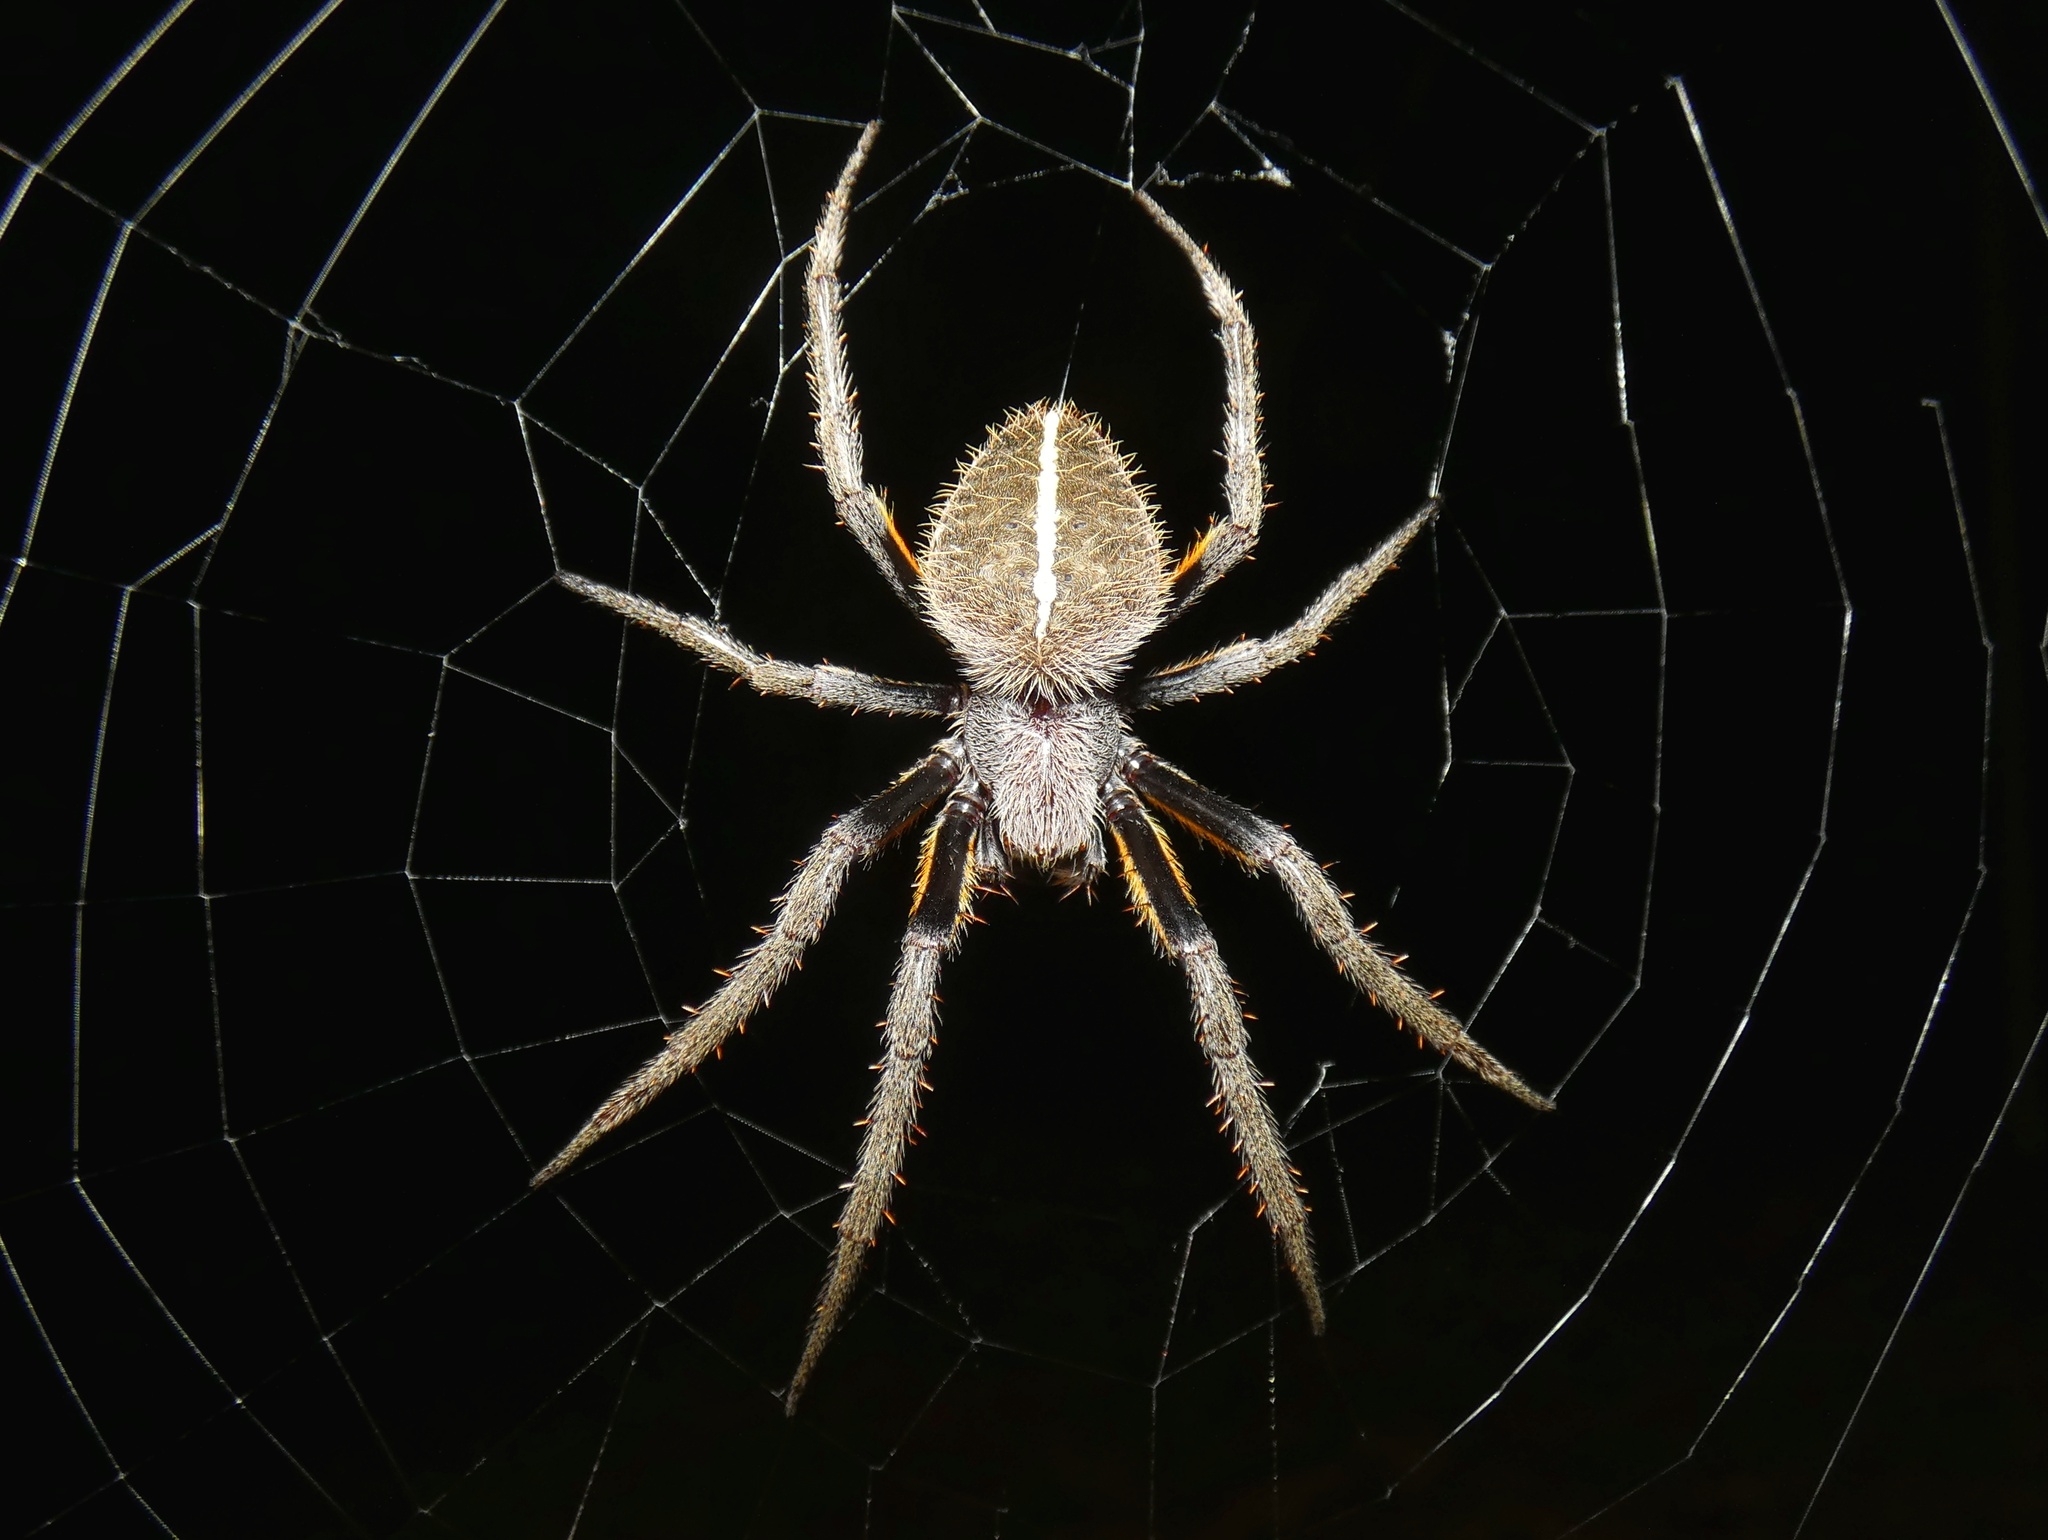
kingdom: Animalia
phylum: Arthropoda
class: Arachnida
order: Araneae
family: Araneidae
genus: Eriophora
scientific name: Eriophora fuliginea
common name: Orb weavers
